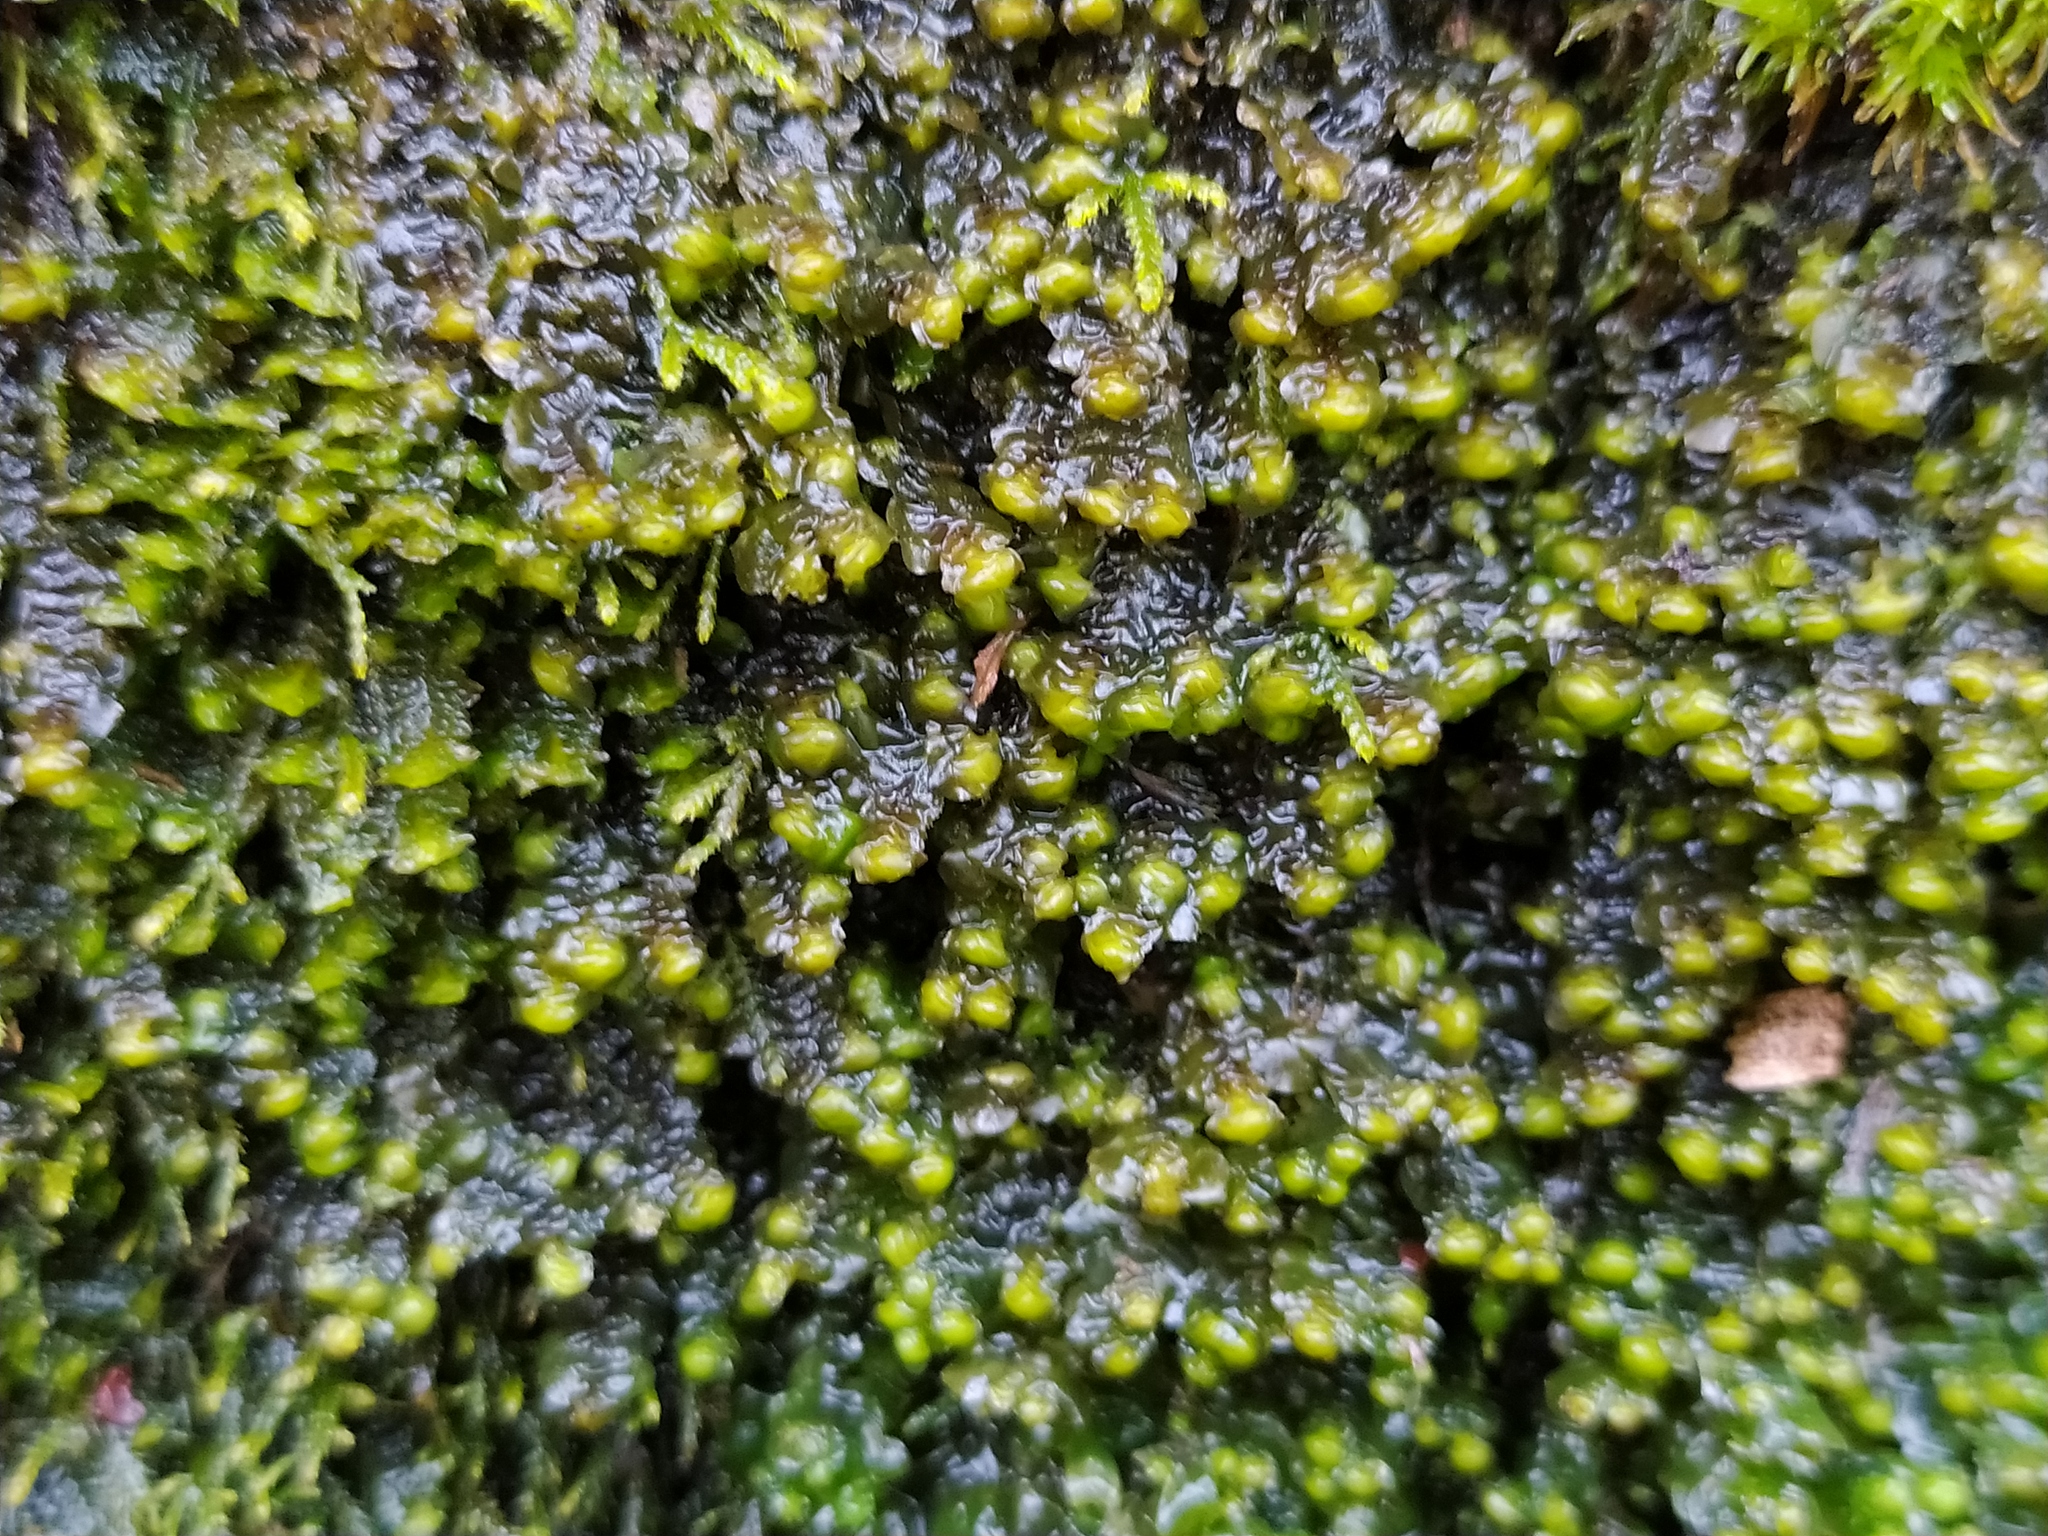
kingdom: Plantae
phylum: Marchantiophyta
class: Jungermanniopsida
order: Jungermanniales
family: Scapaniaceae
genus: Scapania
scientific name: Scapania nemorea
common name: Grove earwort
